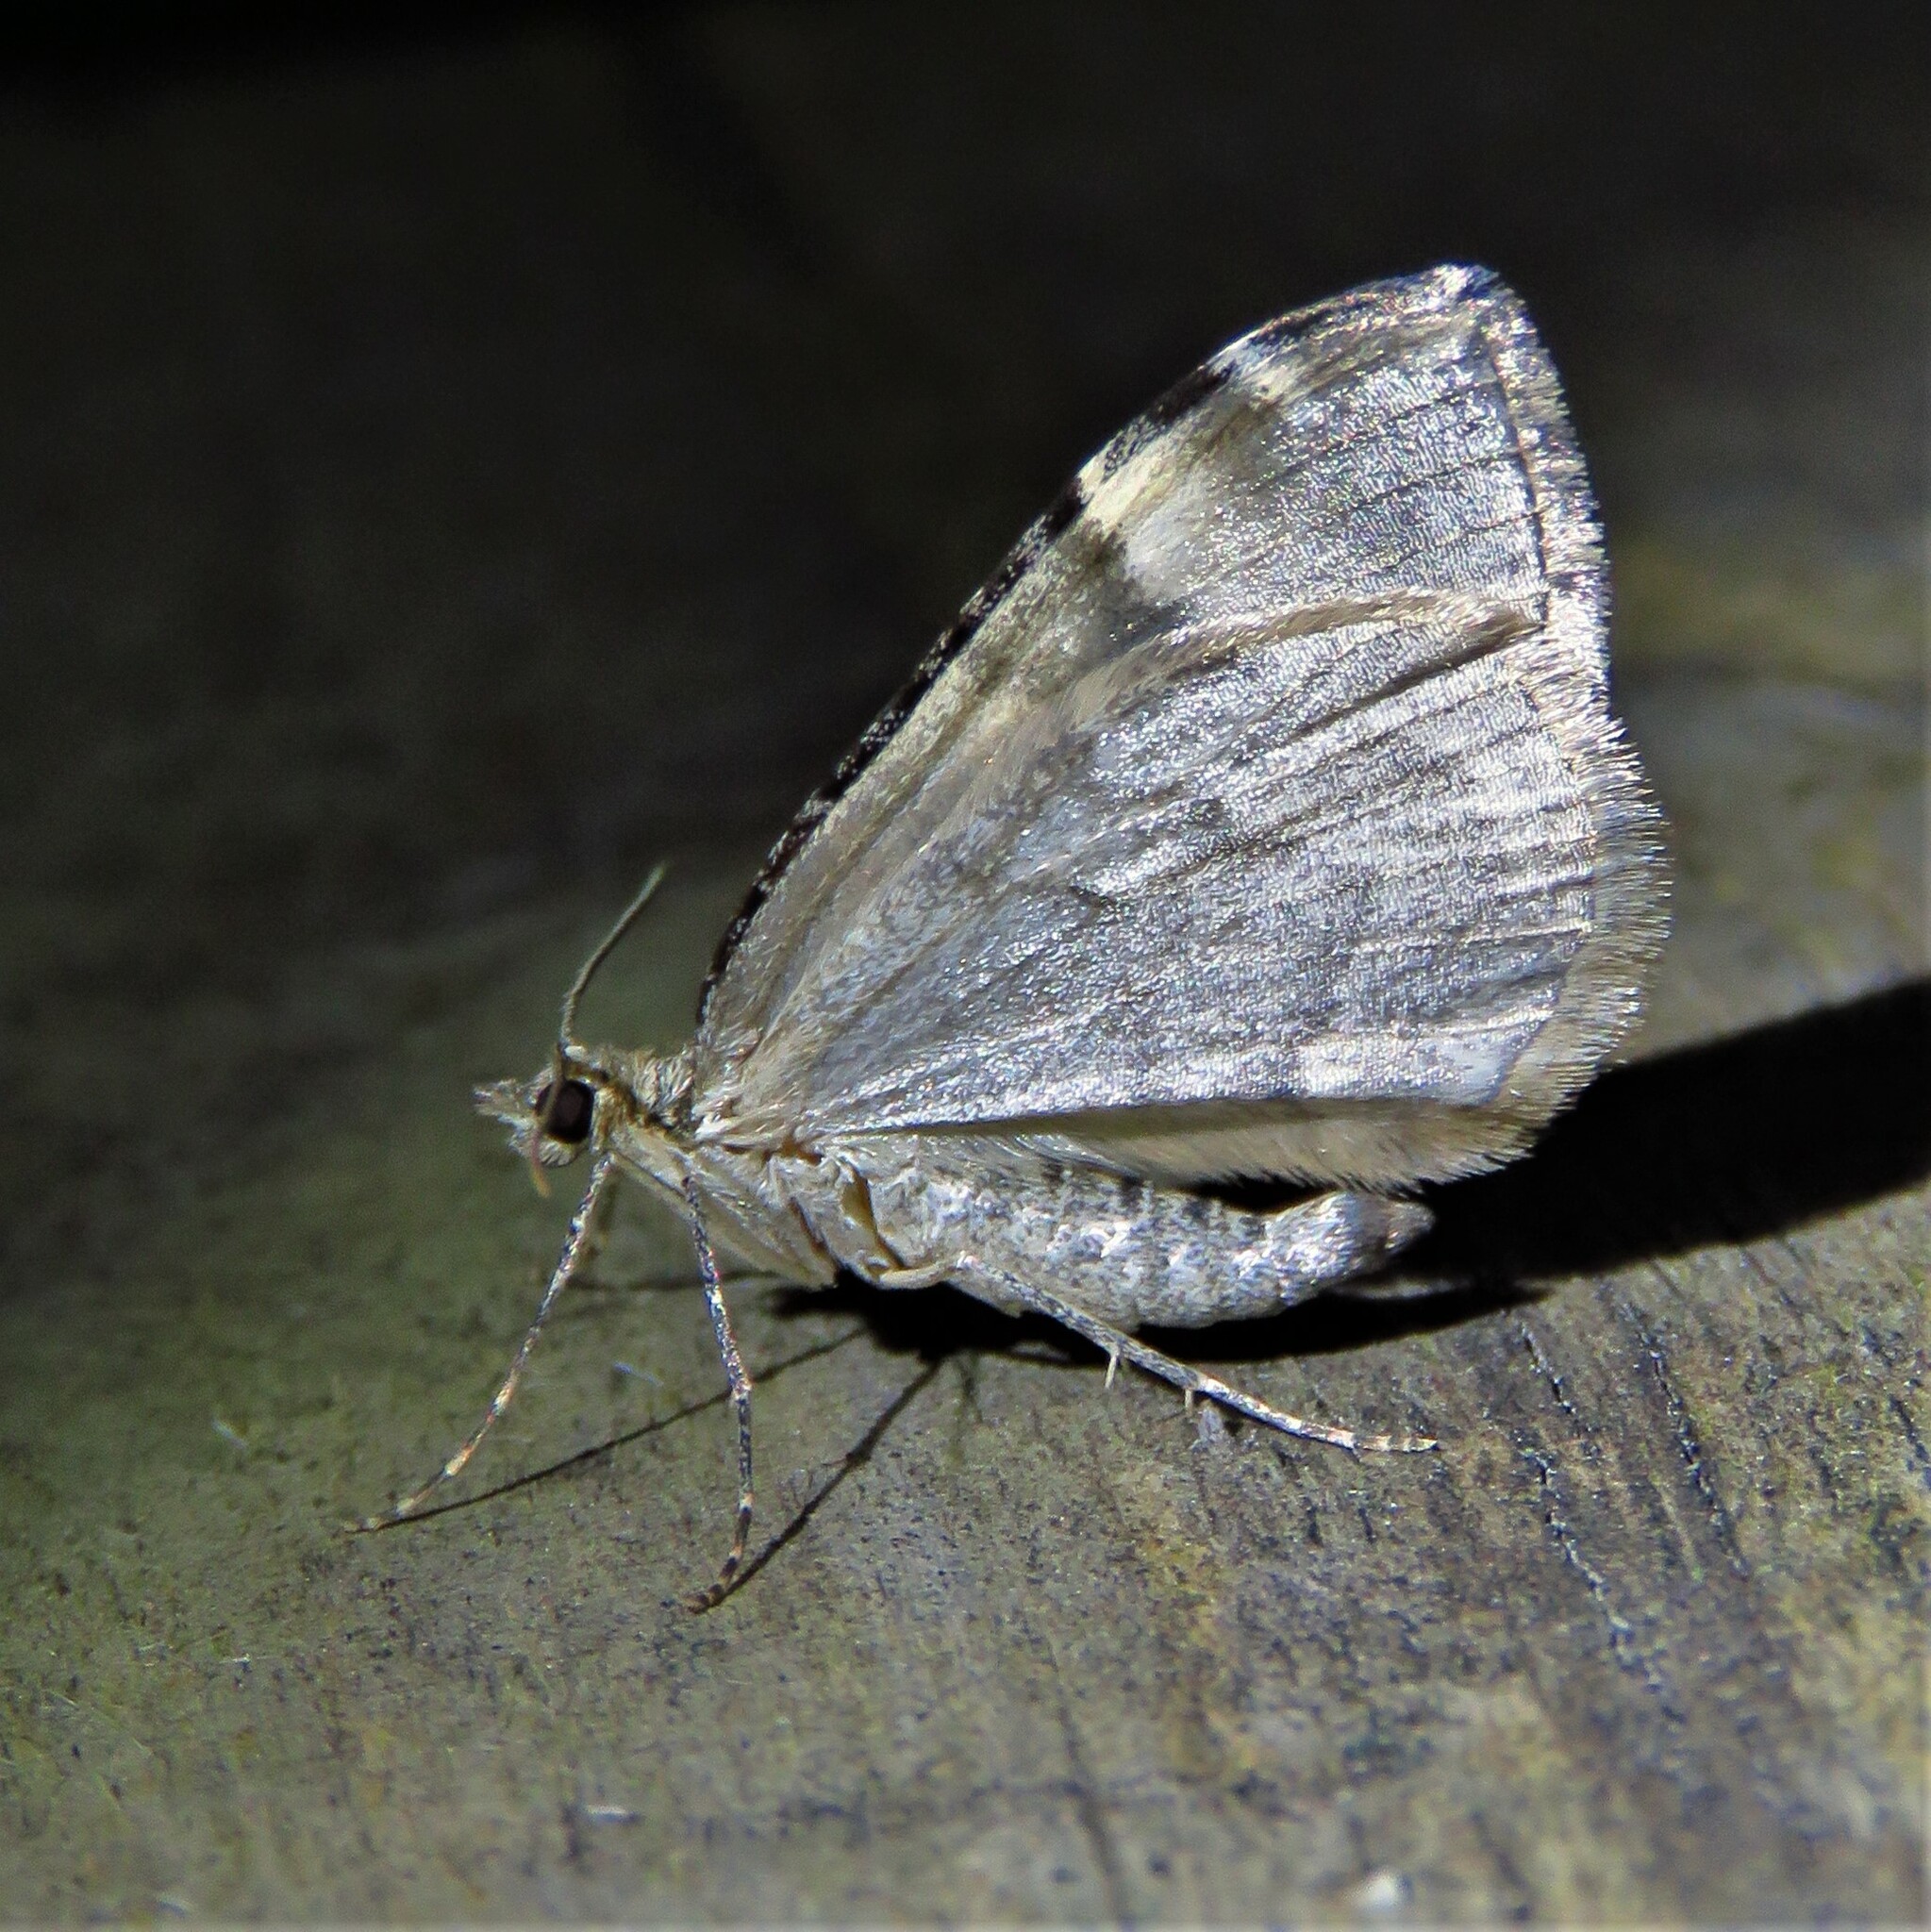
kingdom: Animalia
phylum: Arthropoda
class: Insecta
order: Lepidoptera
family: Geometridae
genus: Dysstroma
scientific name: Dysstroma citrata
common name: Dark marbled carpet
